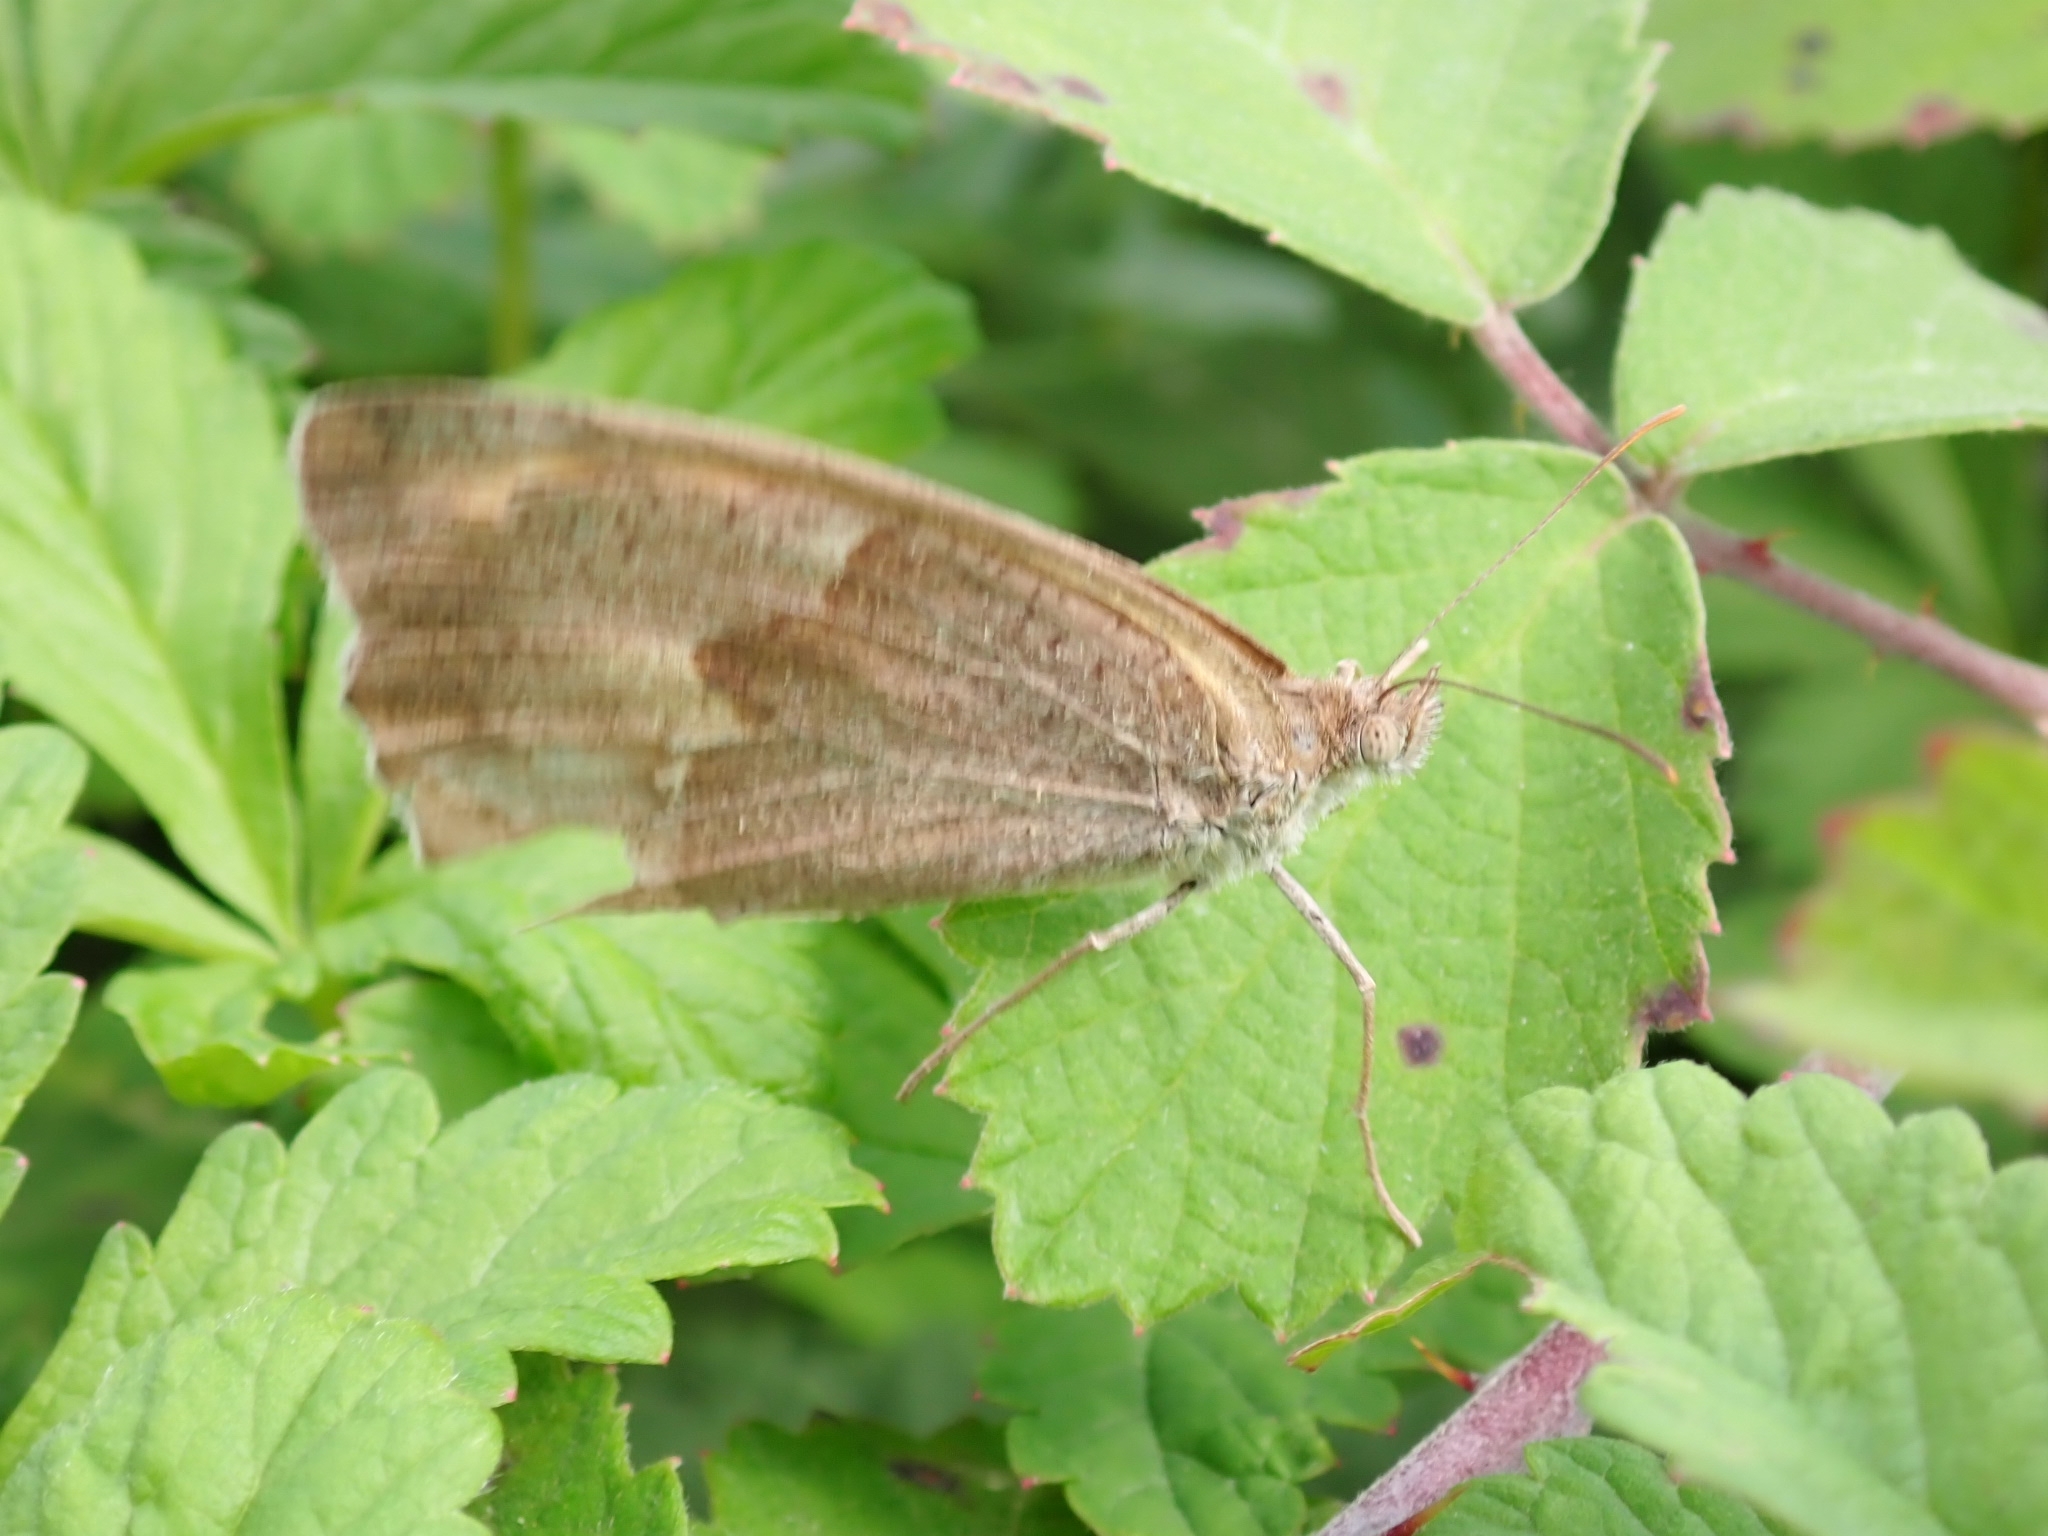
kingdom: Animalia
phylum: Arthropoda
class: Insecta
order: Lepidoptera
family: Nymphalidae
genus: Maniola
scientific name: Maniola jurtina
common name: Meadow brown
